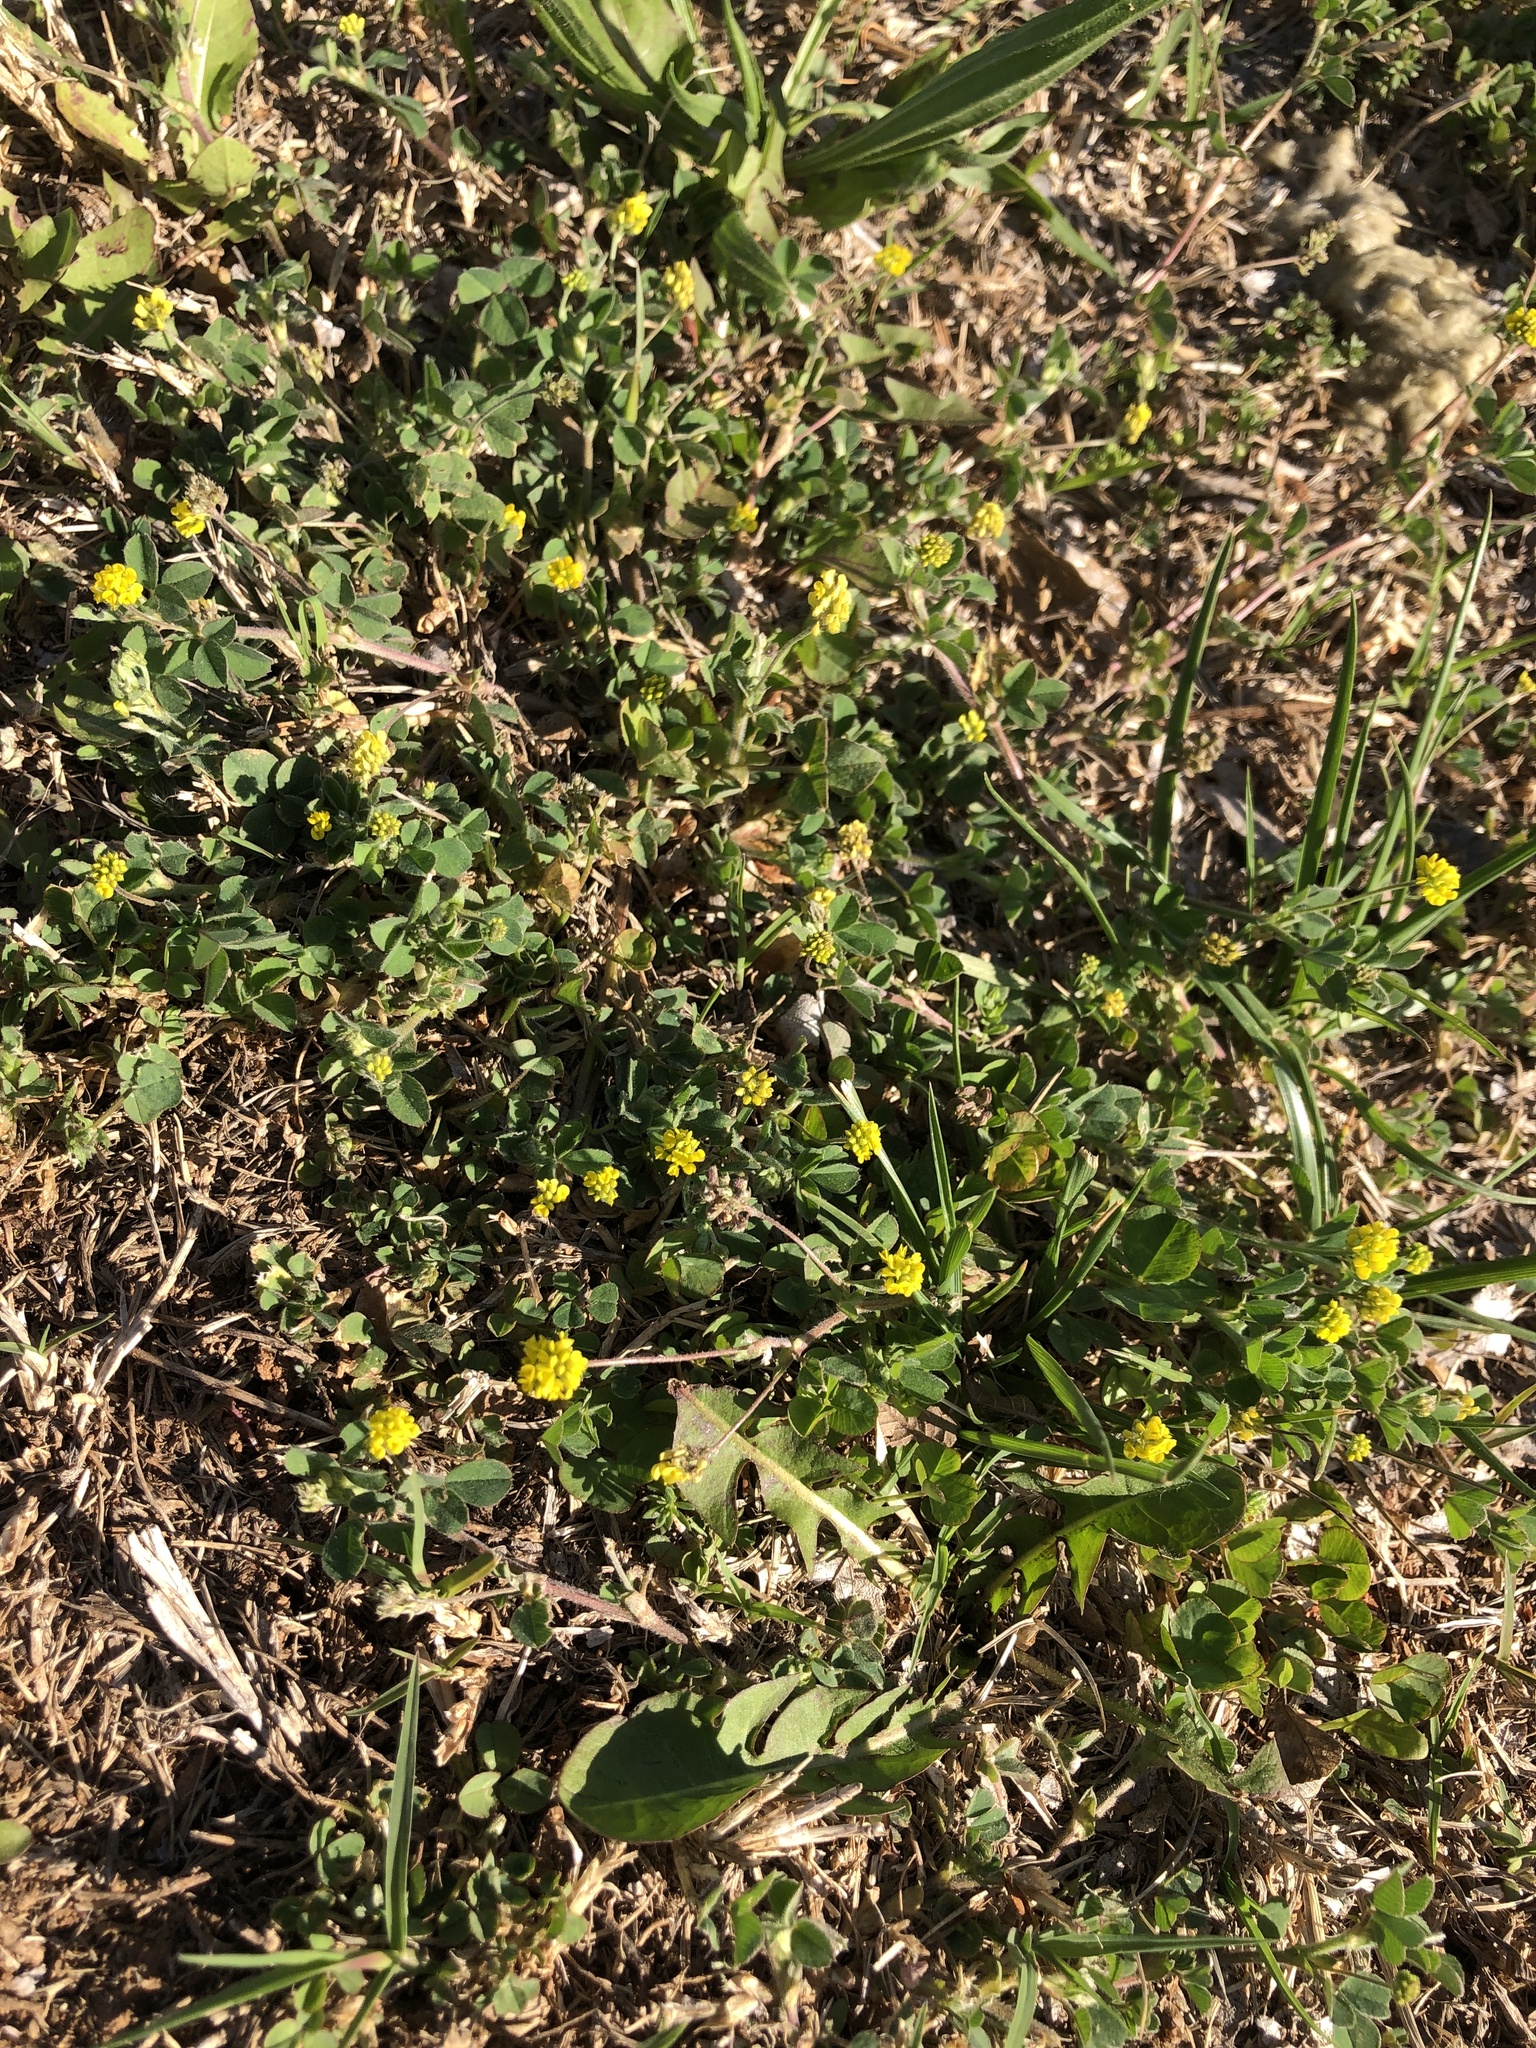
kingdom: Plantae
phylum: Tracheophyta
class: Magnoliopsida
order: Fabales
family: Fabaceae
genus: Medicago
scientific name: Medicago lupulina
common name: Black medick
